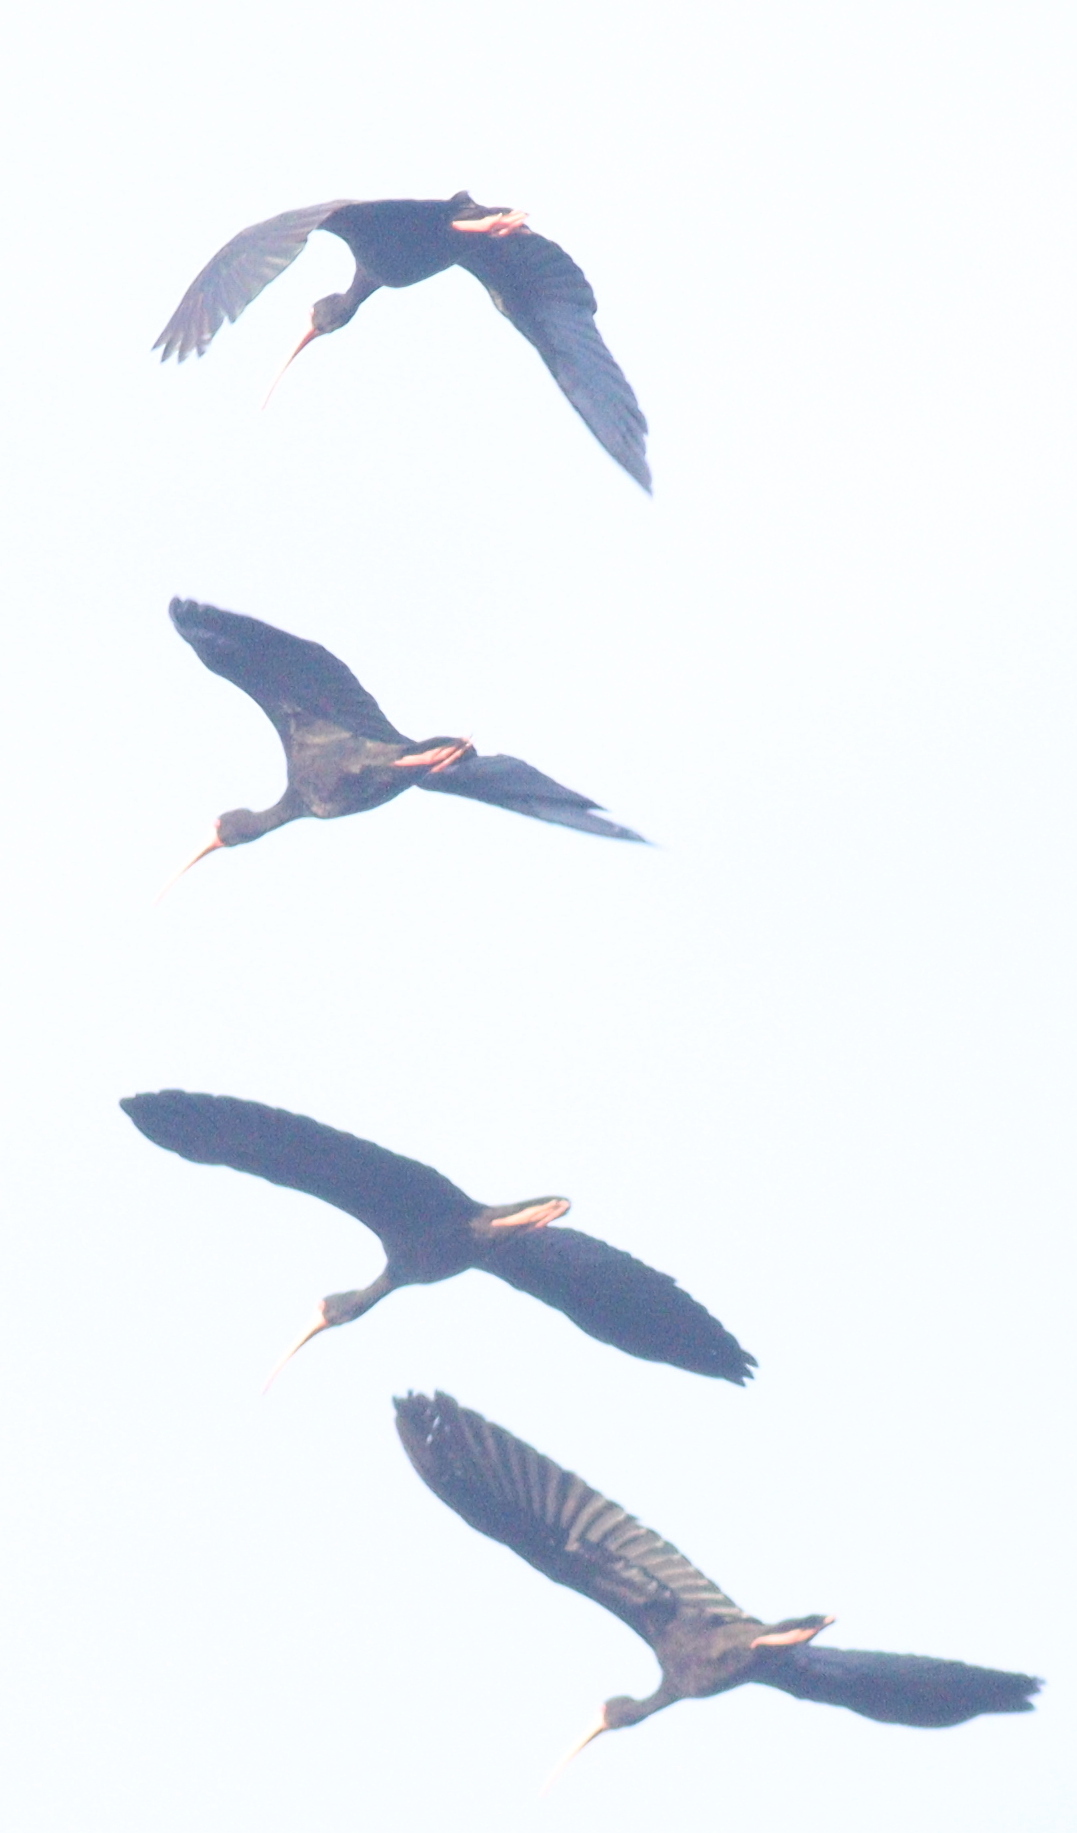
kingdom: Animalia
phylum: Chordata
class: Aves
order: Pelecaniformes
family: Threskiornithidae
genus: Phimosus
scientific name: Phimosus infuscatus
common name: Bare-faced ibis
